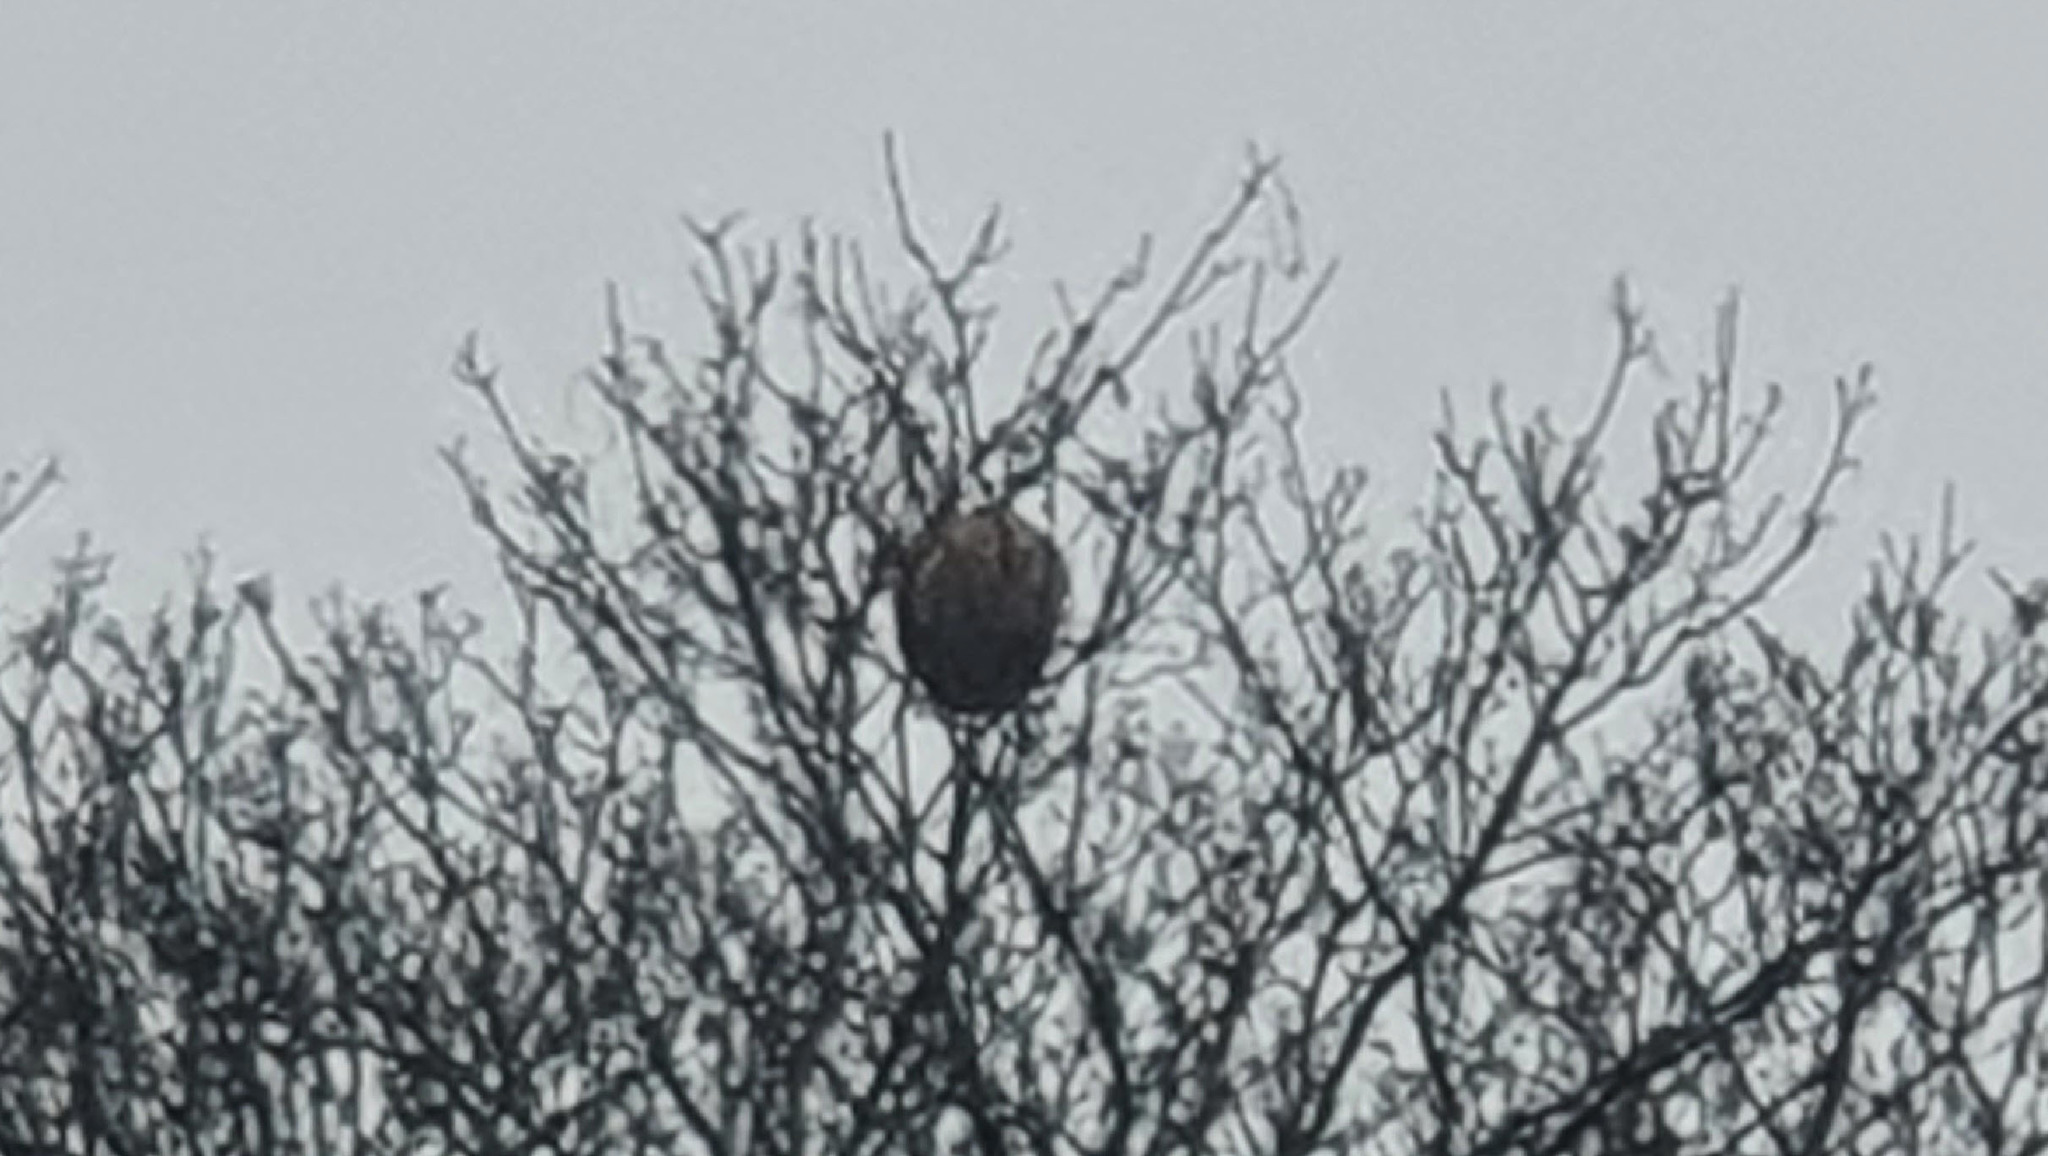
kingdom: Animalia
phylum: Arthropoda
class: Insecta
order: Hymenoptera
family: Vespidae
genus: Vespa
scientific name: Vespa velutina
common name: Asian hornet
